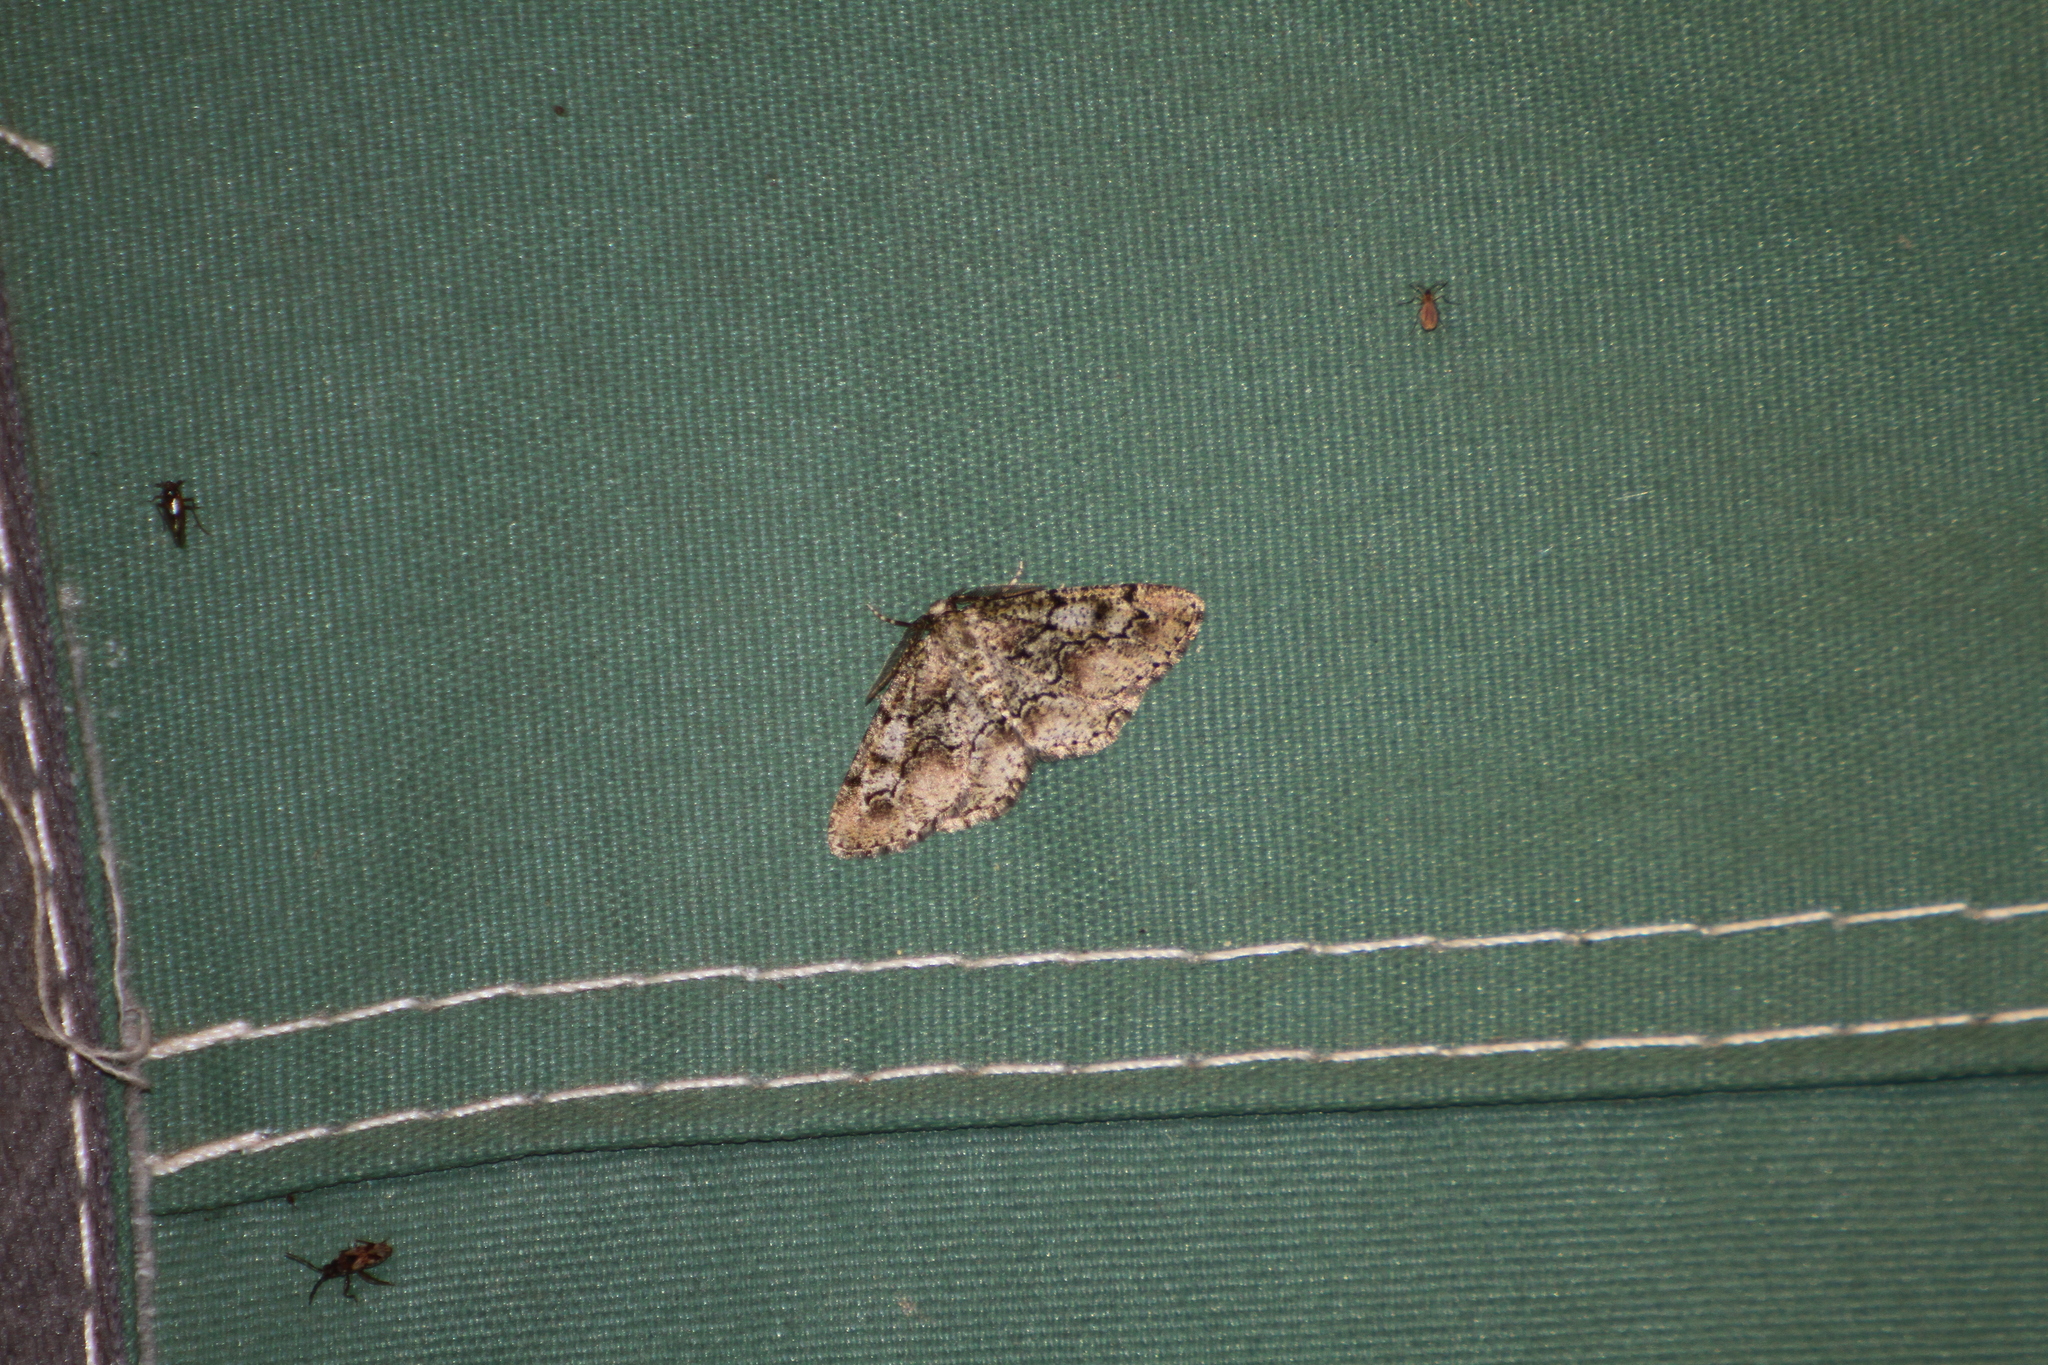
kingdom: Animalia
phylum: Arthropoda
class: Insecta
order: Lepidoptera
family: Geometridae
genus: Cleorodes
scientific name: Cleorodes lichenaria
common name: Brussels lace
